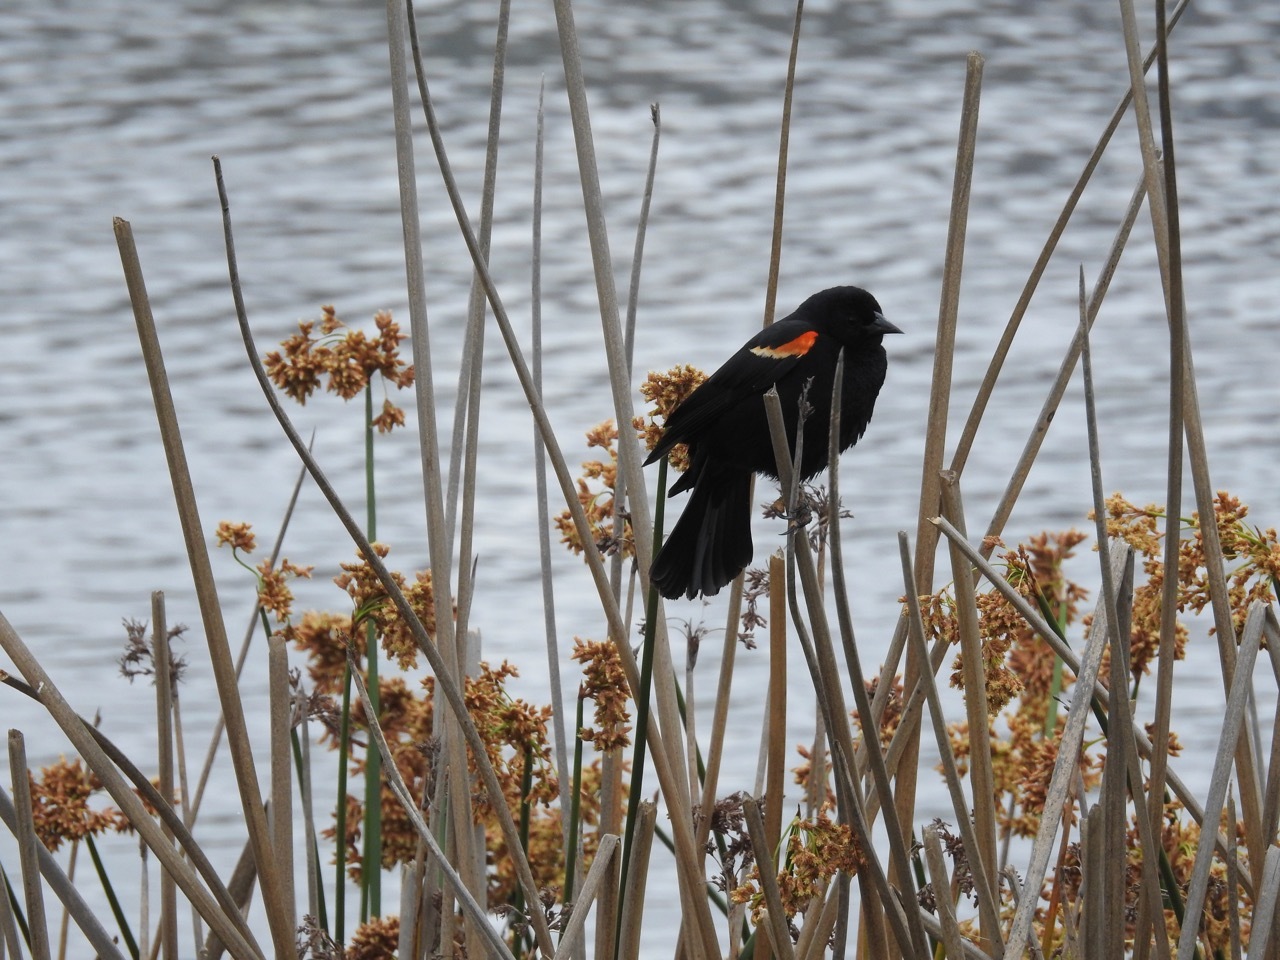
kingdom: Animalia
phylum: Chordata
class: Aves
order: Passeriformes
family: Icteridae
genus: Agelaius
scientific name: Agelaius phoeniceus
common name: Red-winged blackbird
